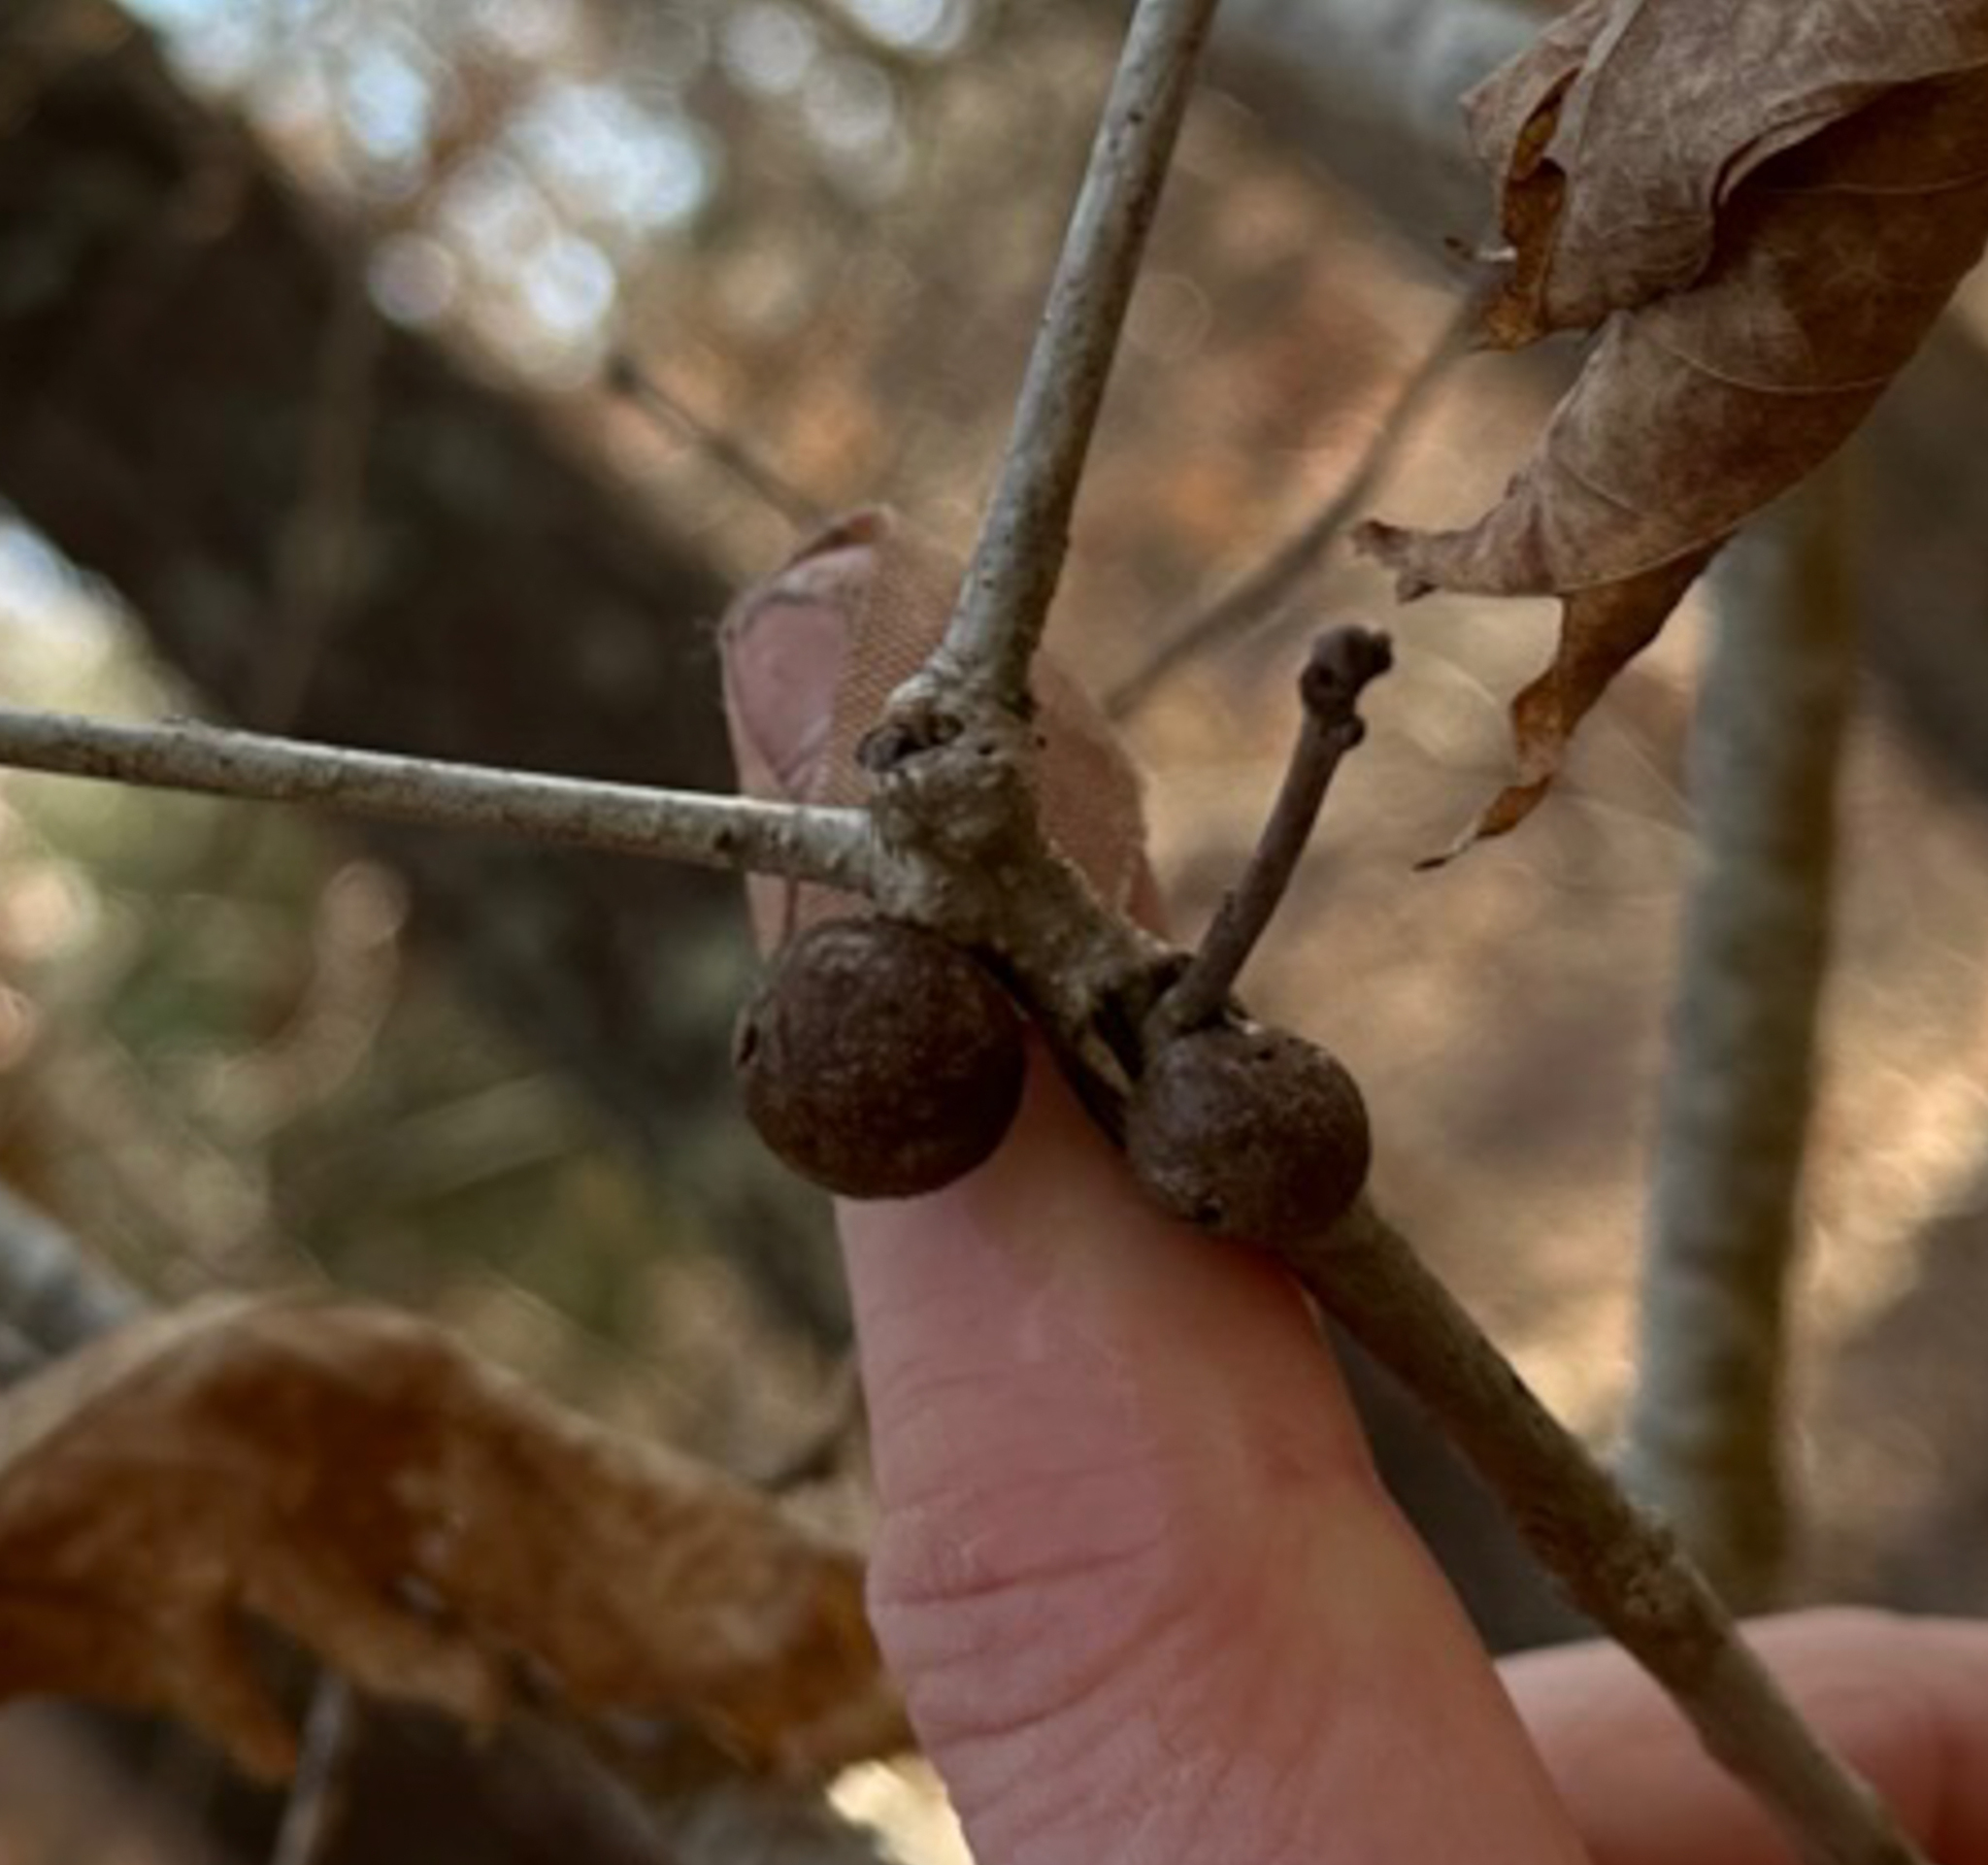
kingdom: Animalia
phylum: Arthropoda
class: Insecta
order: Hymenoptera
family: Cynipidae
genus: Disholcaspis
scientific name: Disholcaspis quercusglobulus
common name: Round bullet gall wasp
